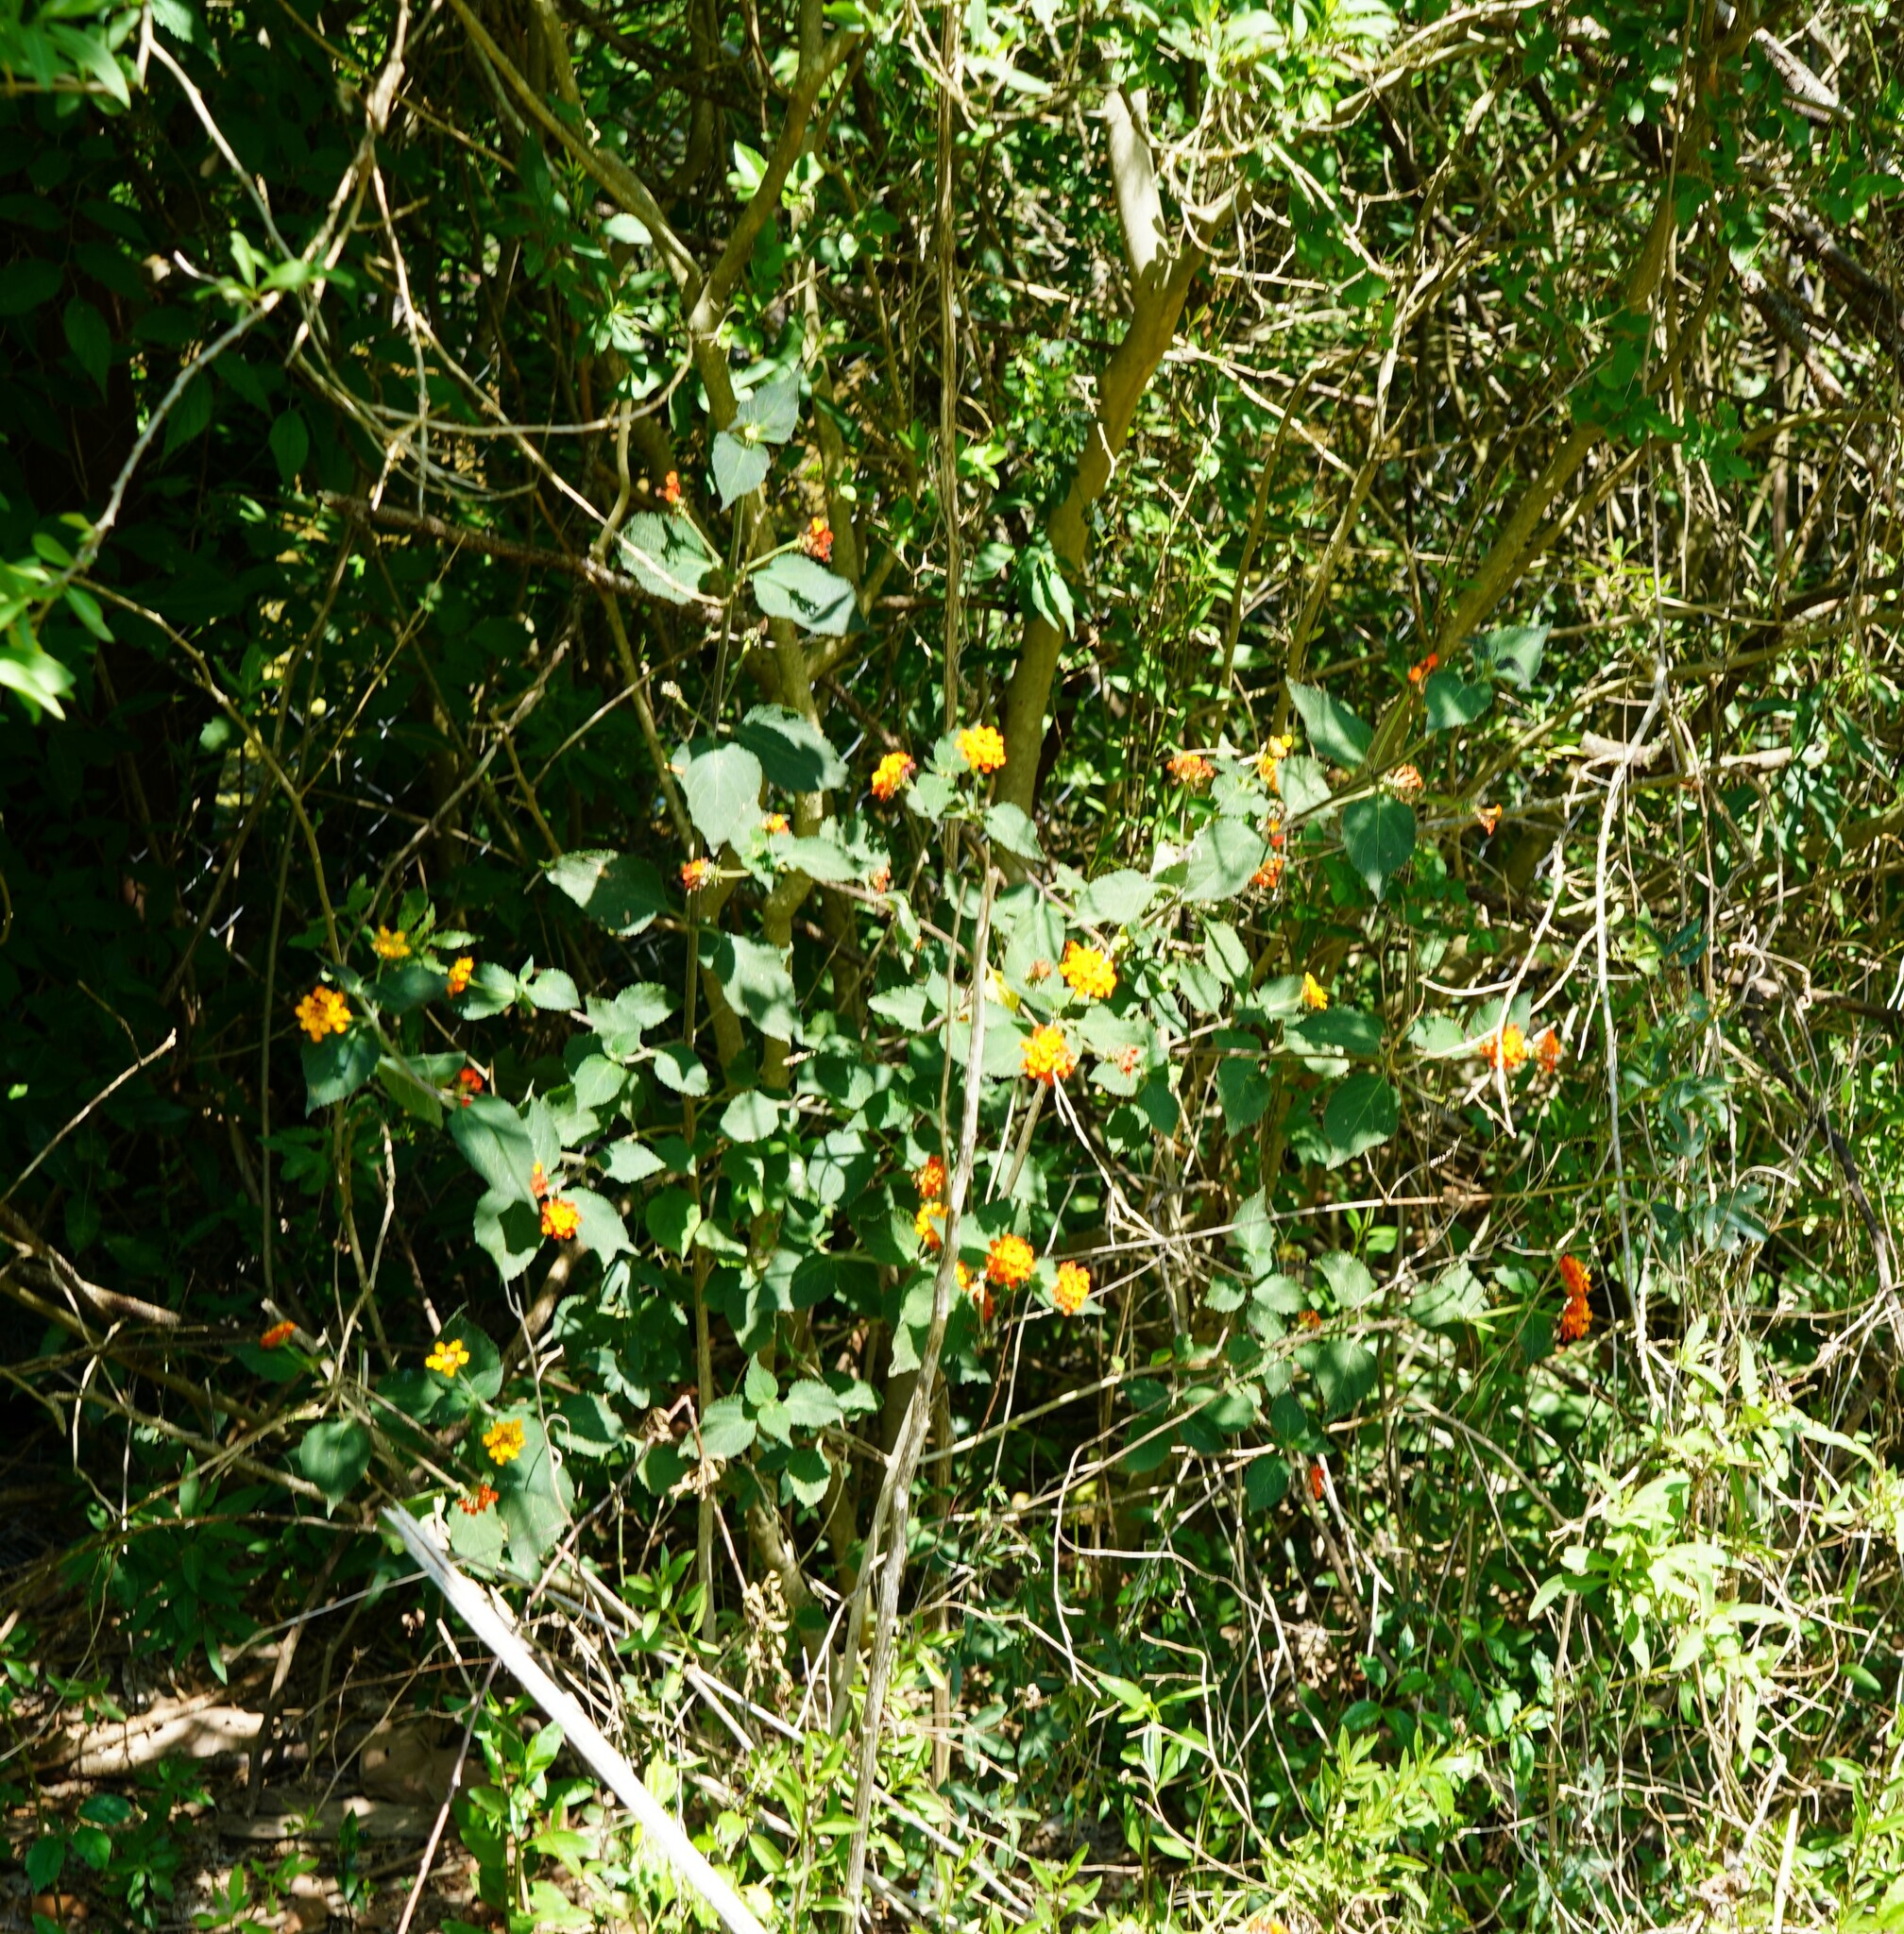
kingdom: Plantae
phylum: Tracheophyta
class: Magnoliopsida
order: Lamiales
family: Verbenaceae
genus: Lantana
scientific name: Lantana camara
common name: Lantana
